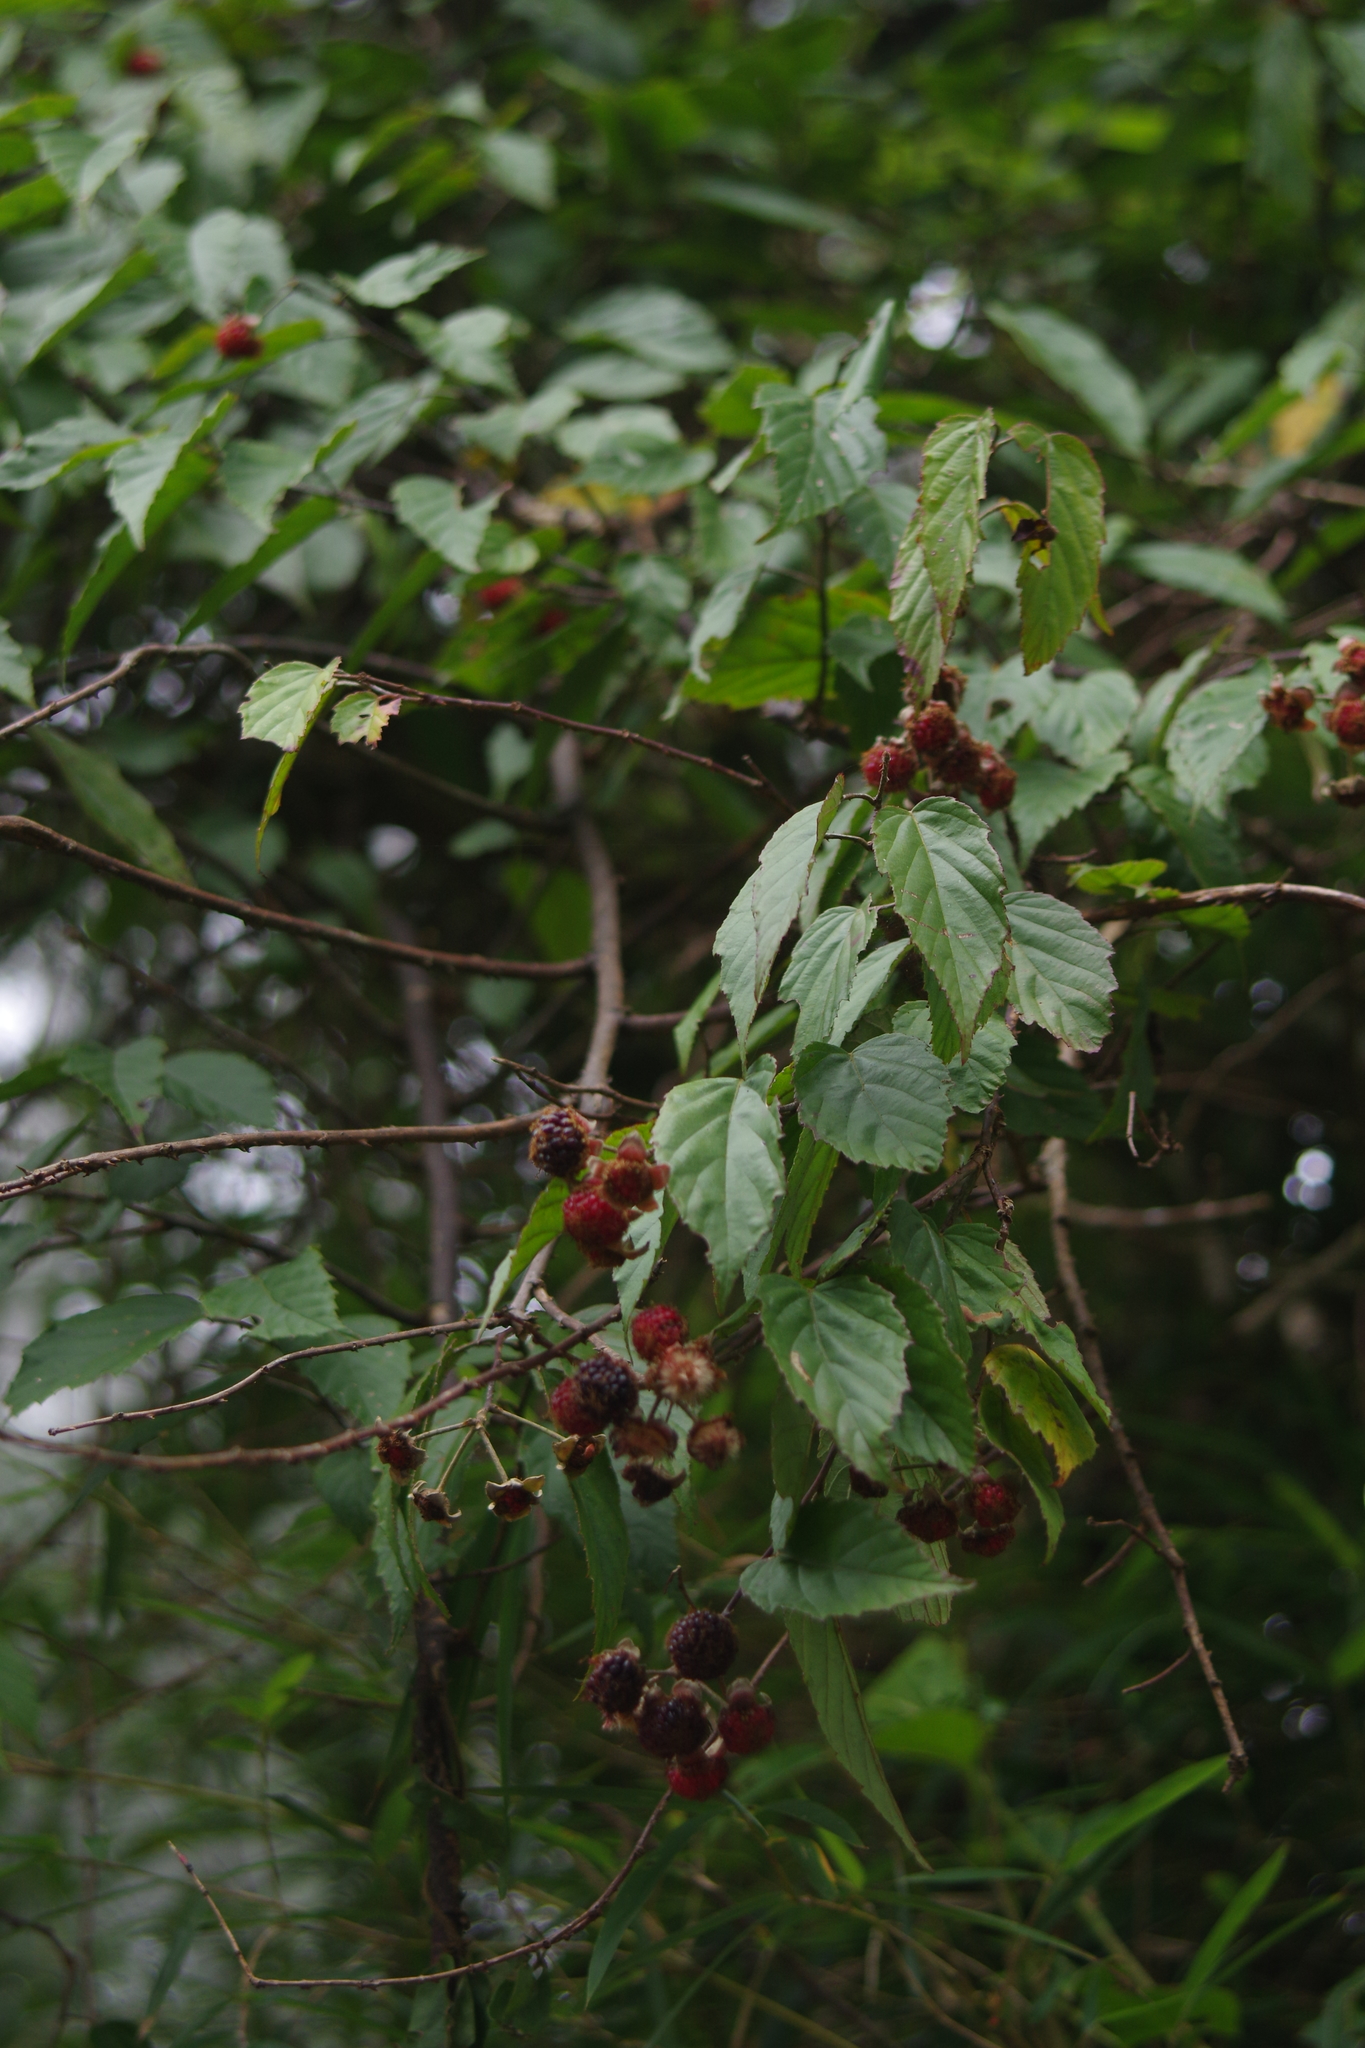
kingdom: Plantae
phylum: Tracheophyta
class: Magnoliopsida
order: Rosales
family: Rosaceae
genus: Rubus
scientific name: Rubus kawakamii
